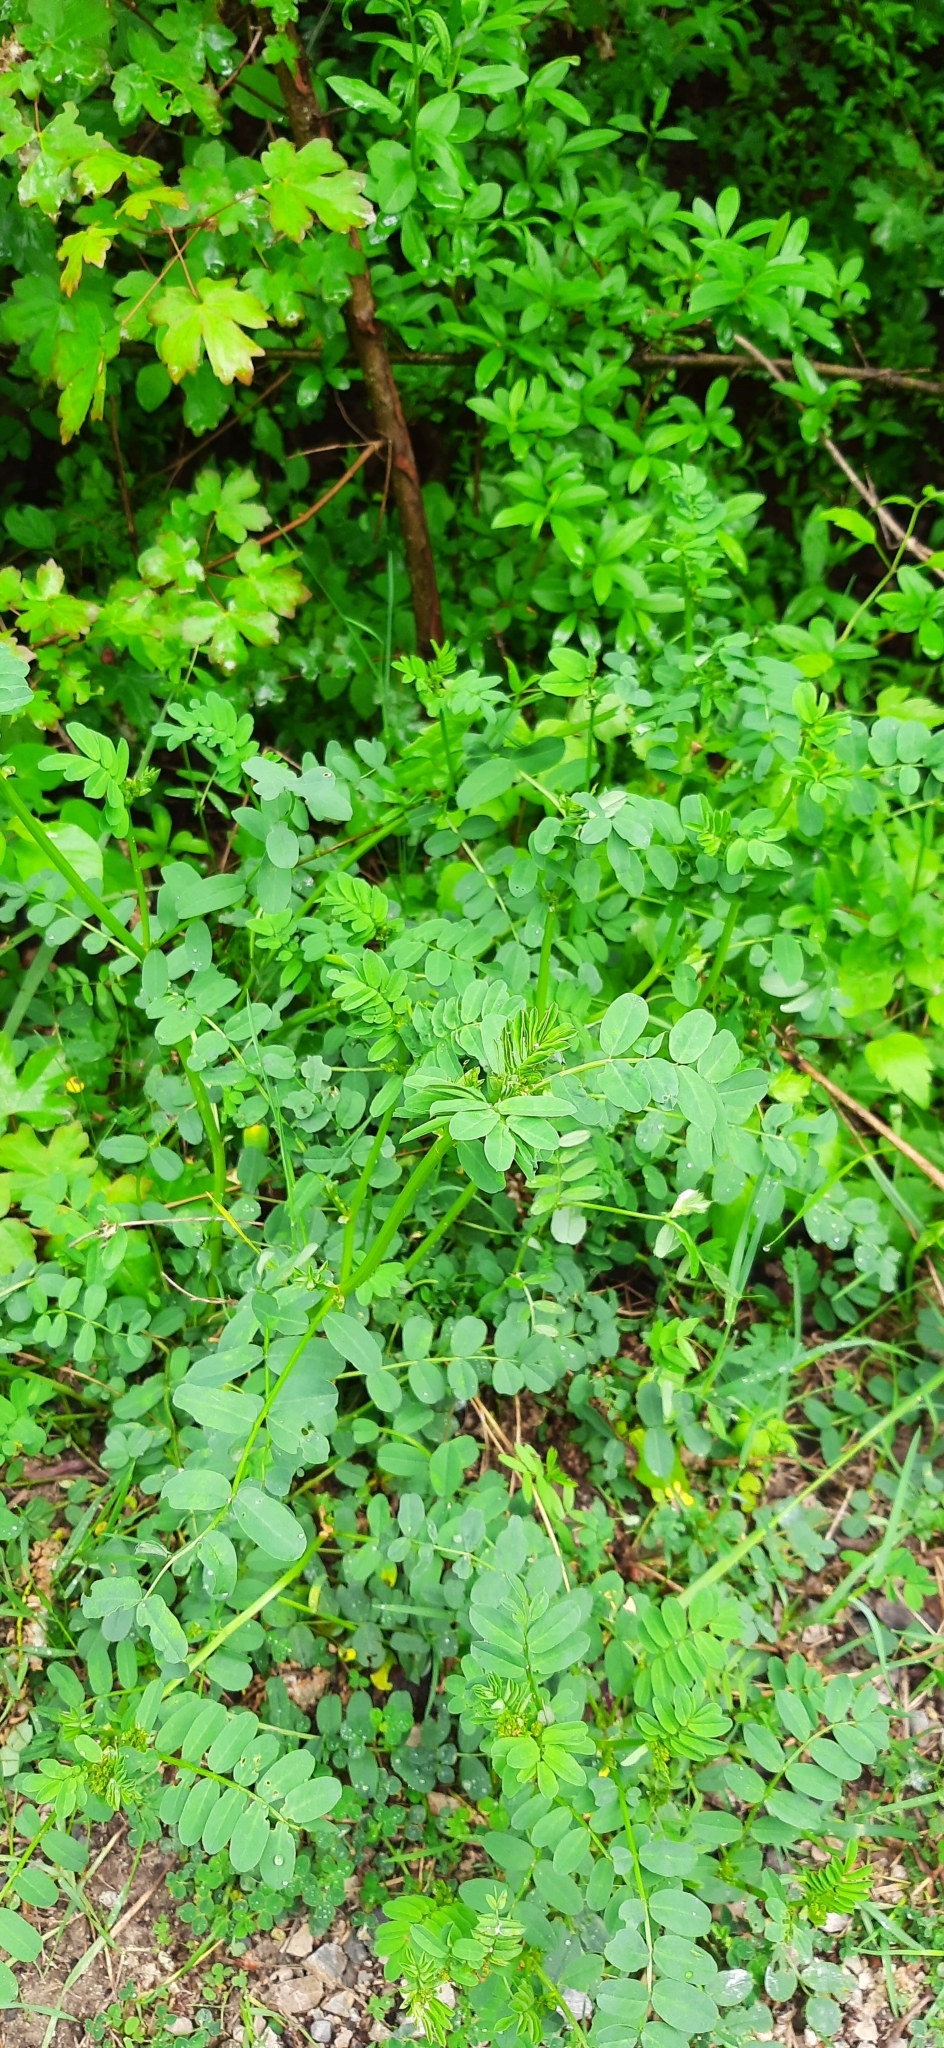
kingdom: Plantae
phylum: Tracheophyta
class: Magnoliopsida
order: Fabales
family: Fabaceae
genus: Coronilla
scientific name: Coronilla varia
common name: Crownvetch
